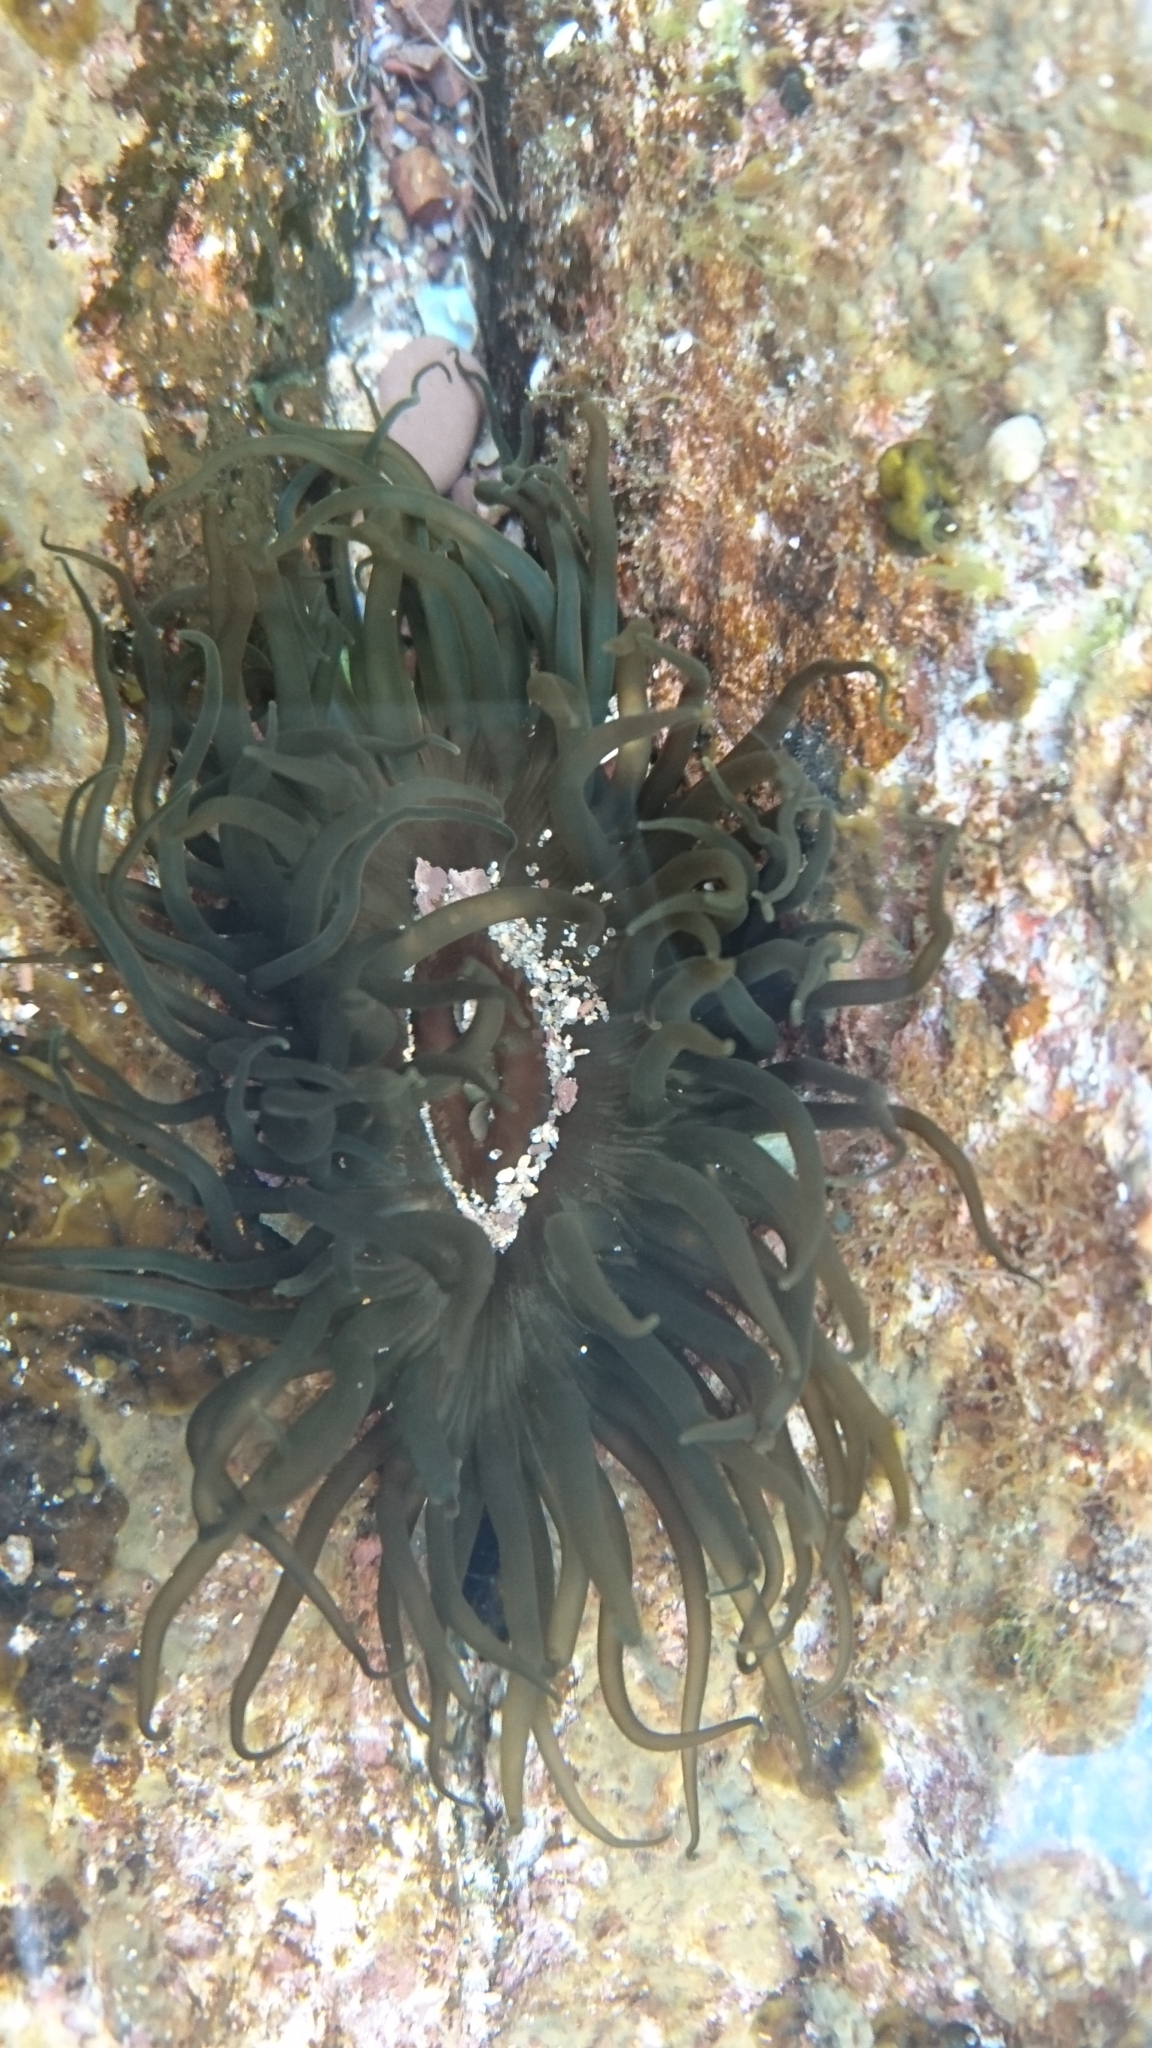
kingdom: Animalia
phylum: Cnidaria
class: Anthozoa
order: Actiniaria
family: Actiniidae
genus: Aulactinia
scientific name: Aulactinia veratra
